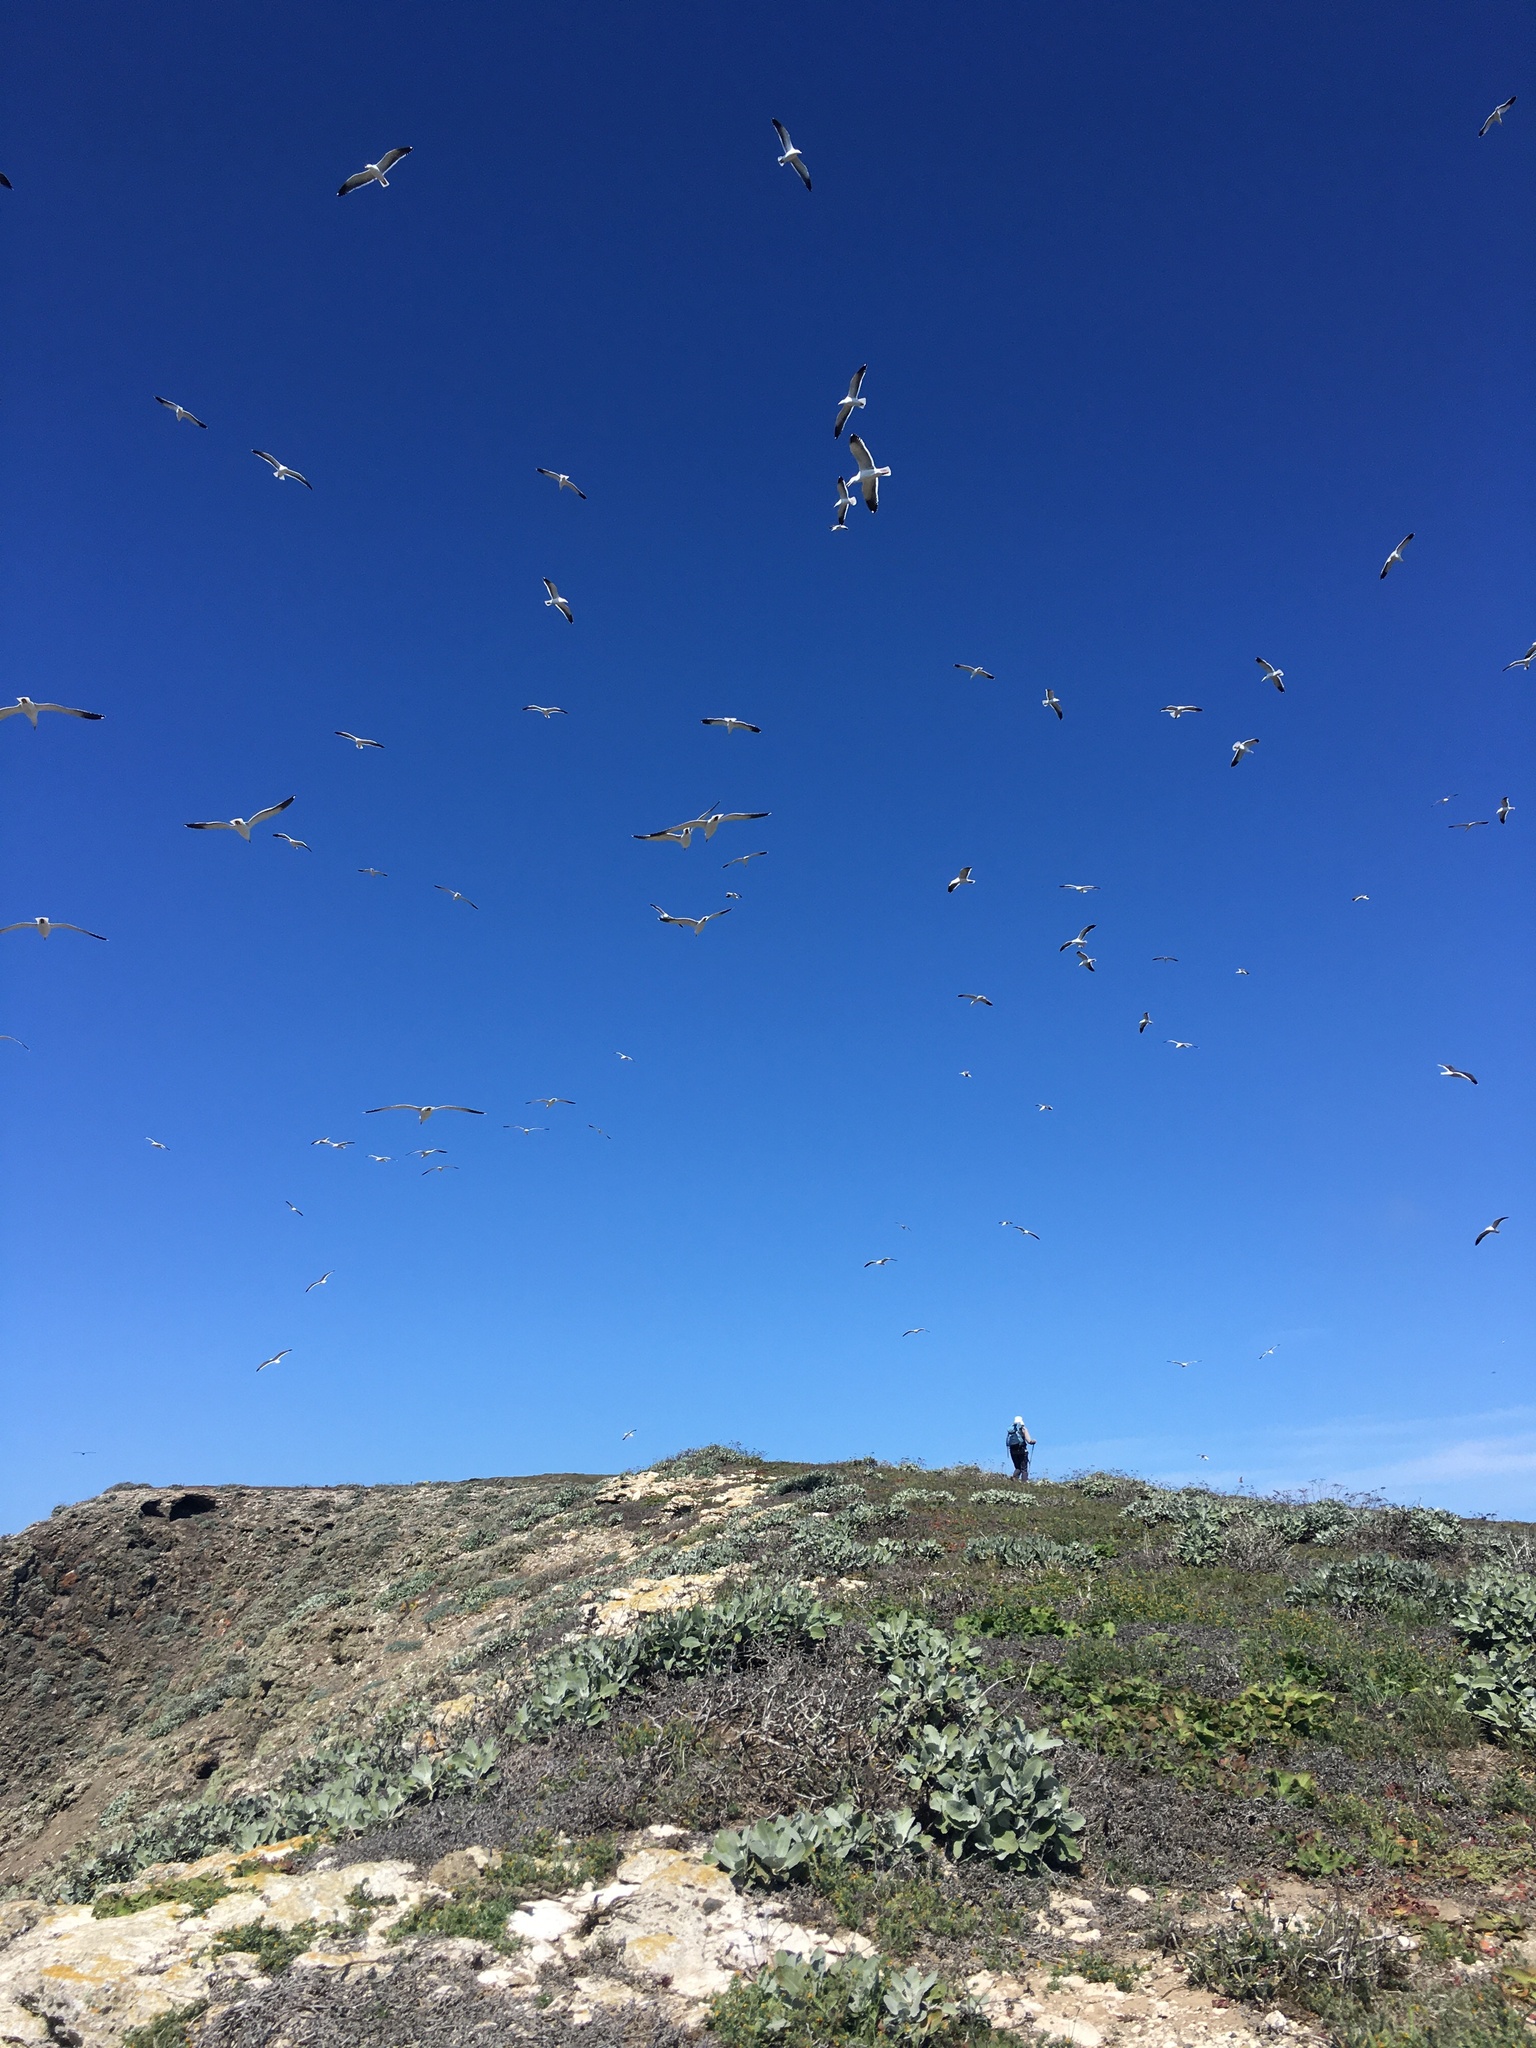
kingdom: Animalia
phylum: Chordata
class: Aves
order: Charadriiformes
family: Laridae
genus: Larus
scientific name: Larus occidentalis
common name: Western gull
